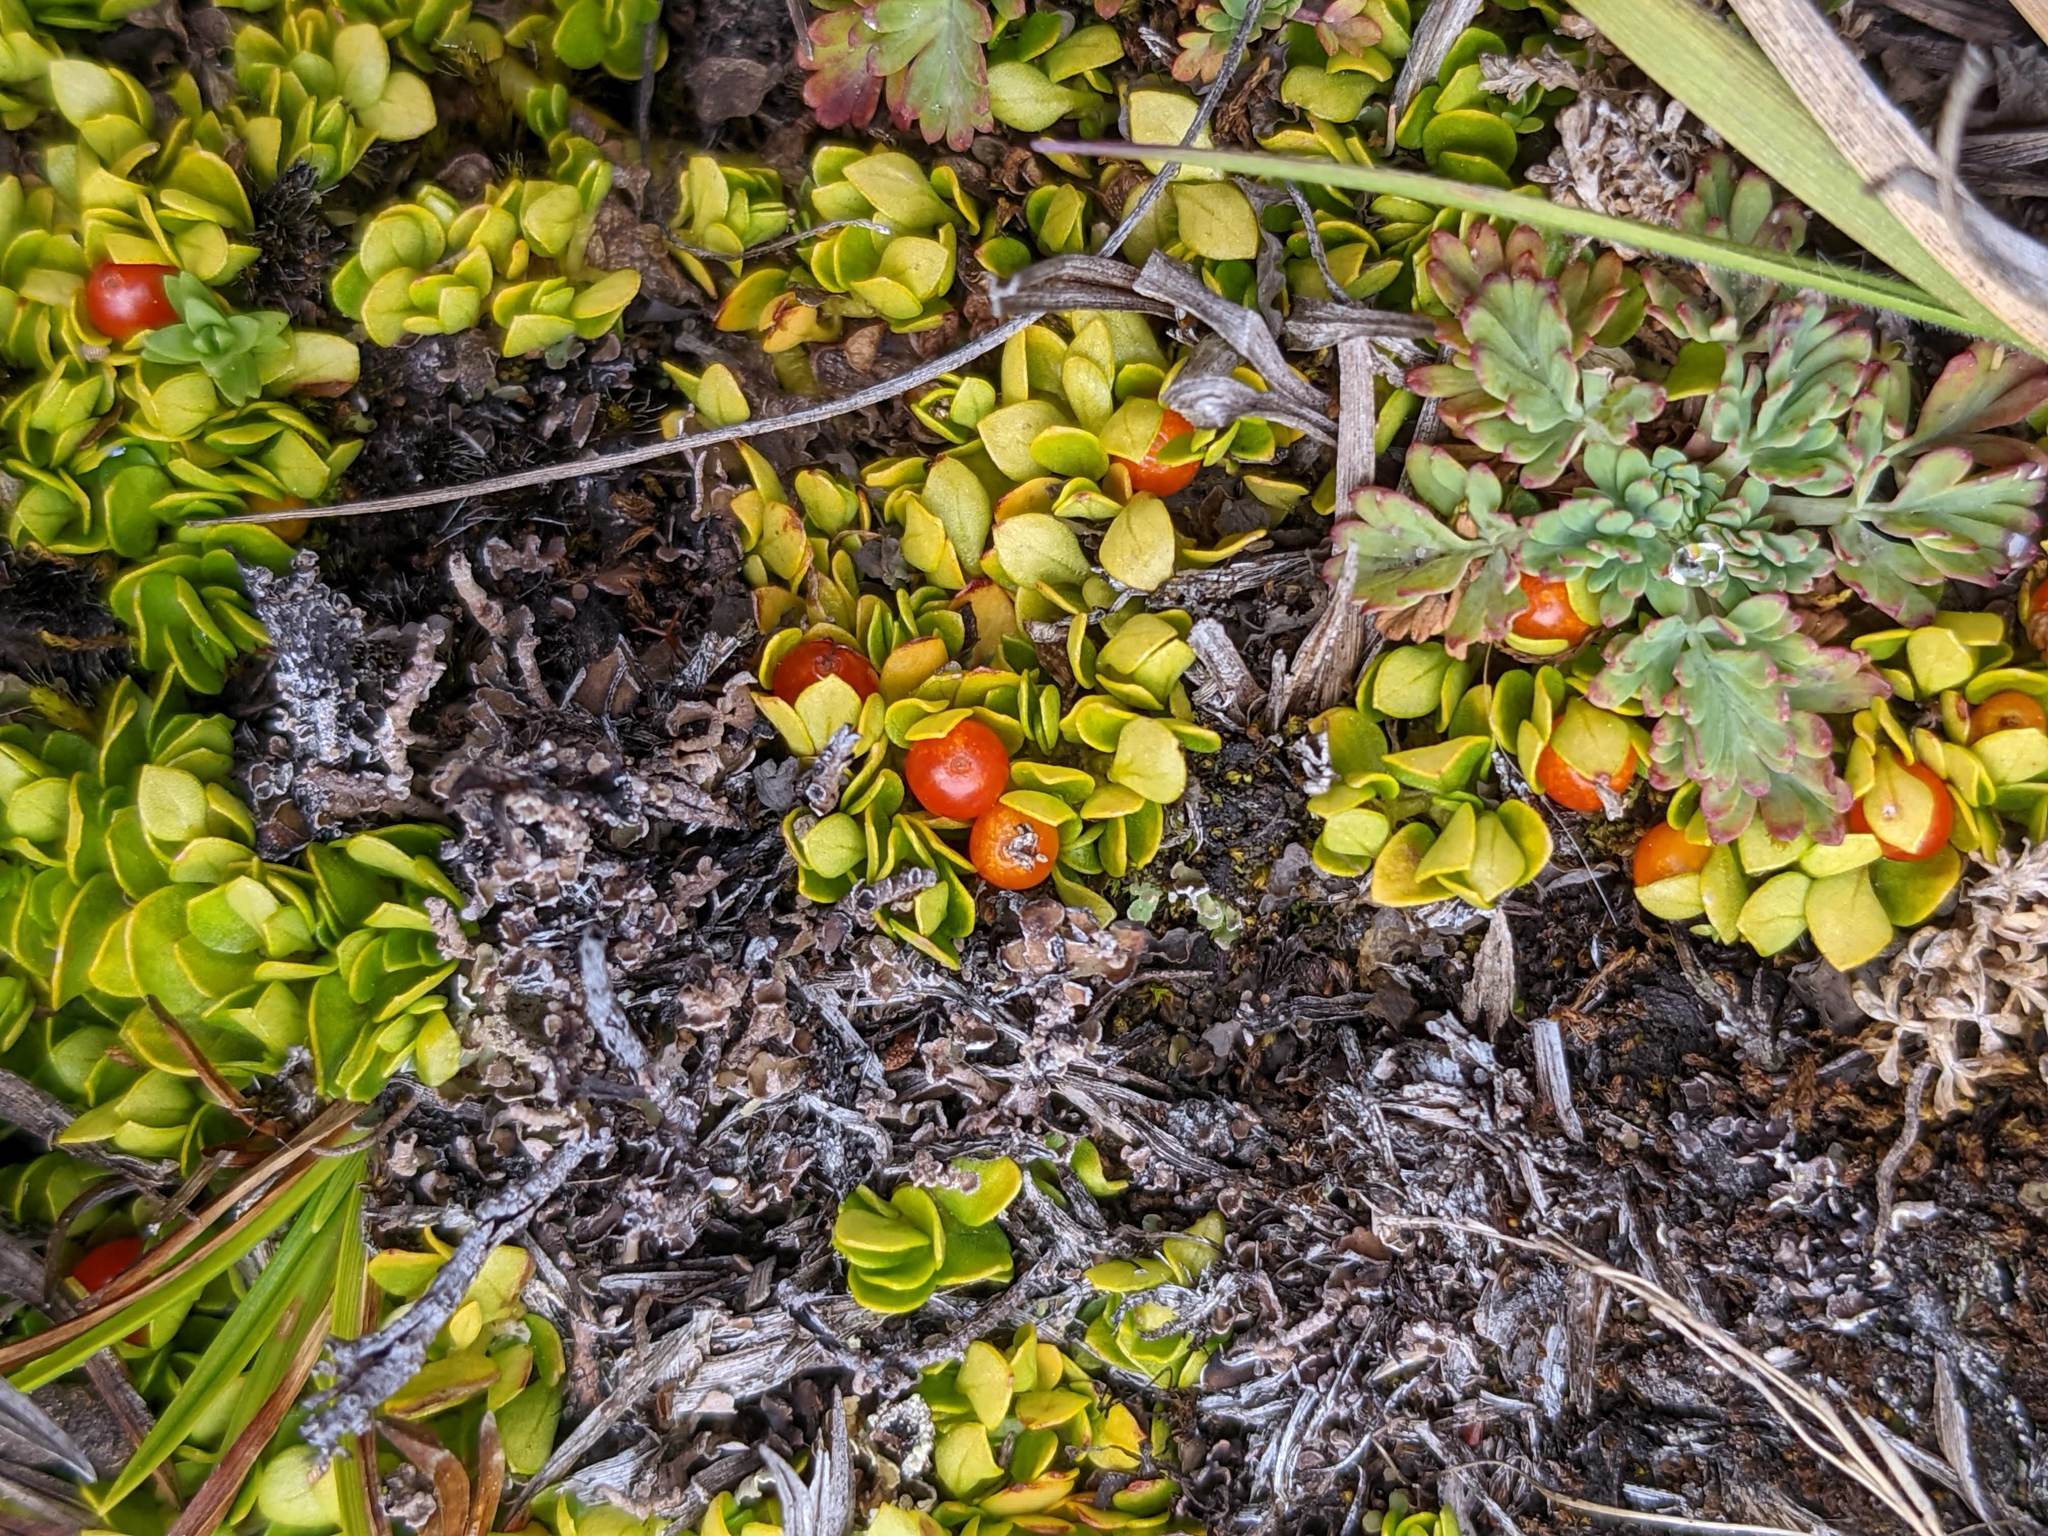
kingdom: Plantae
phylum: Tracheophyta
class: Magnoliopsida
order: Gentianales
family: Rubiaceae
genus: Nertera
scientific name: Nertera granadensis
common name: Beadplant
